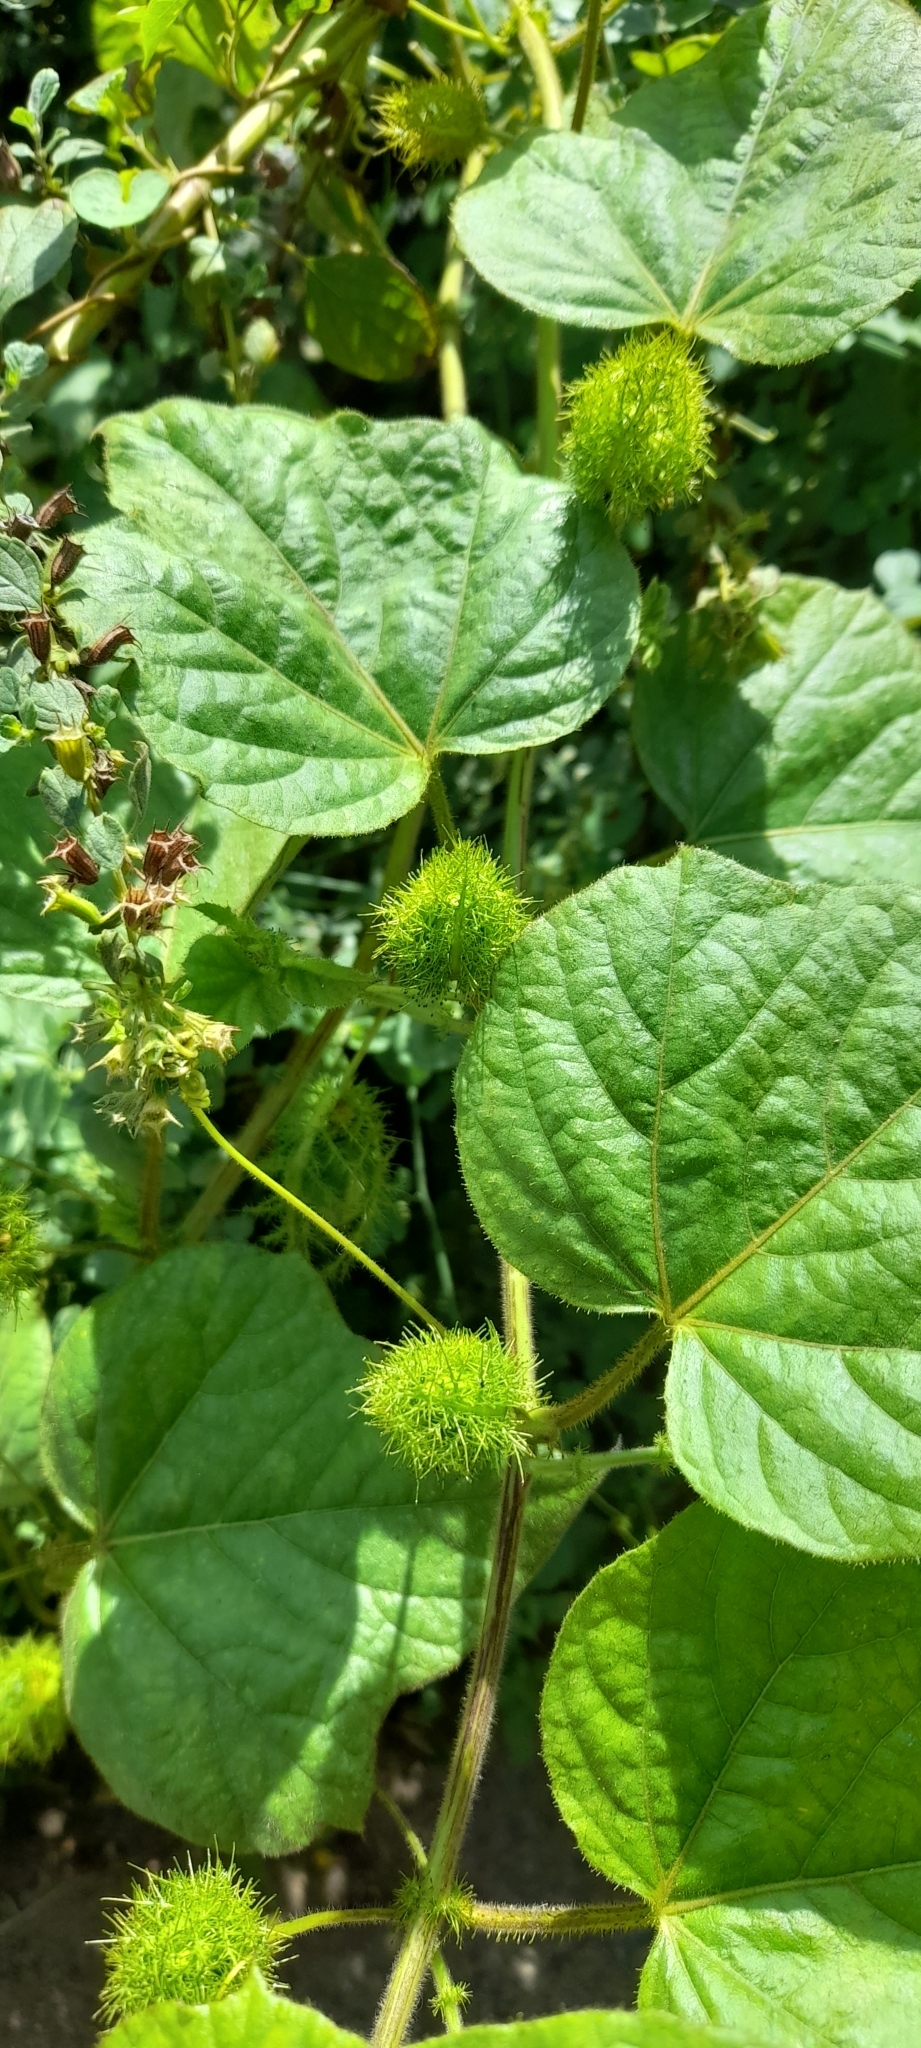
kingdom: Plantae
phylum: Tracheophyta
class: Magnoliopsida
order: Malpighiales
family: Passifloraceae
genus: Passiflora
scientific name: Passiflora vesicaria
